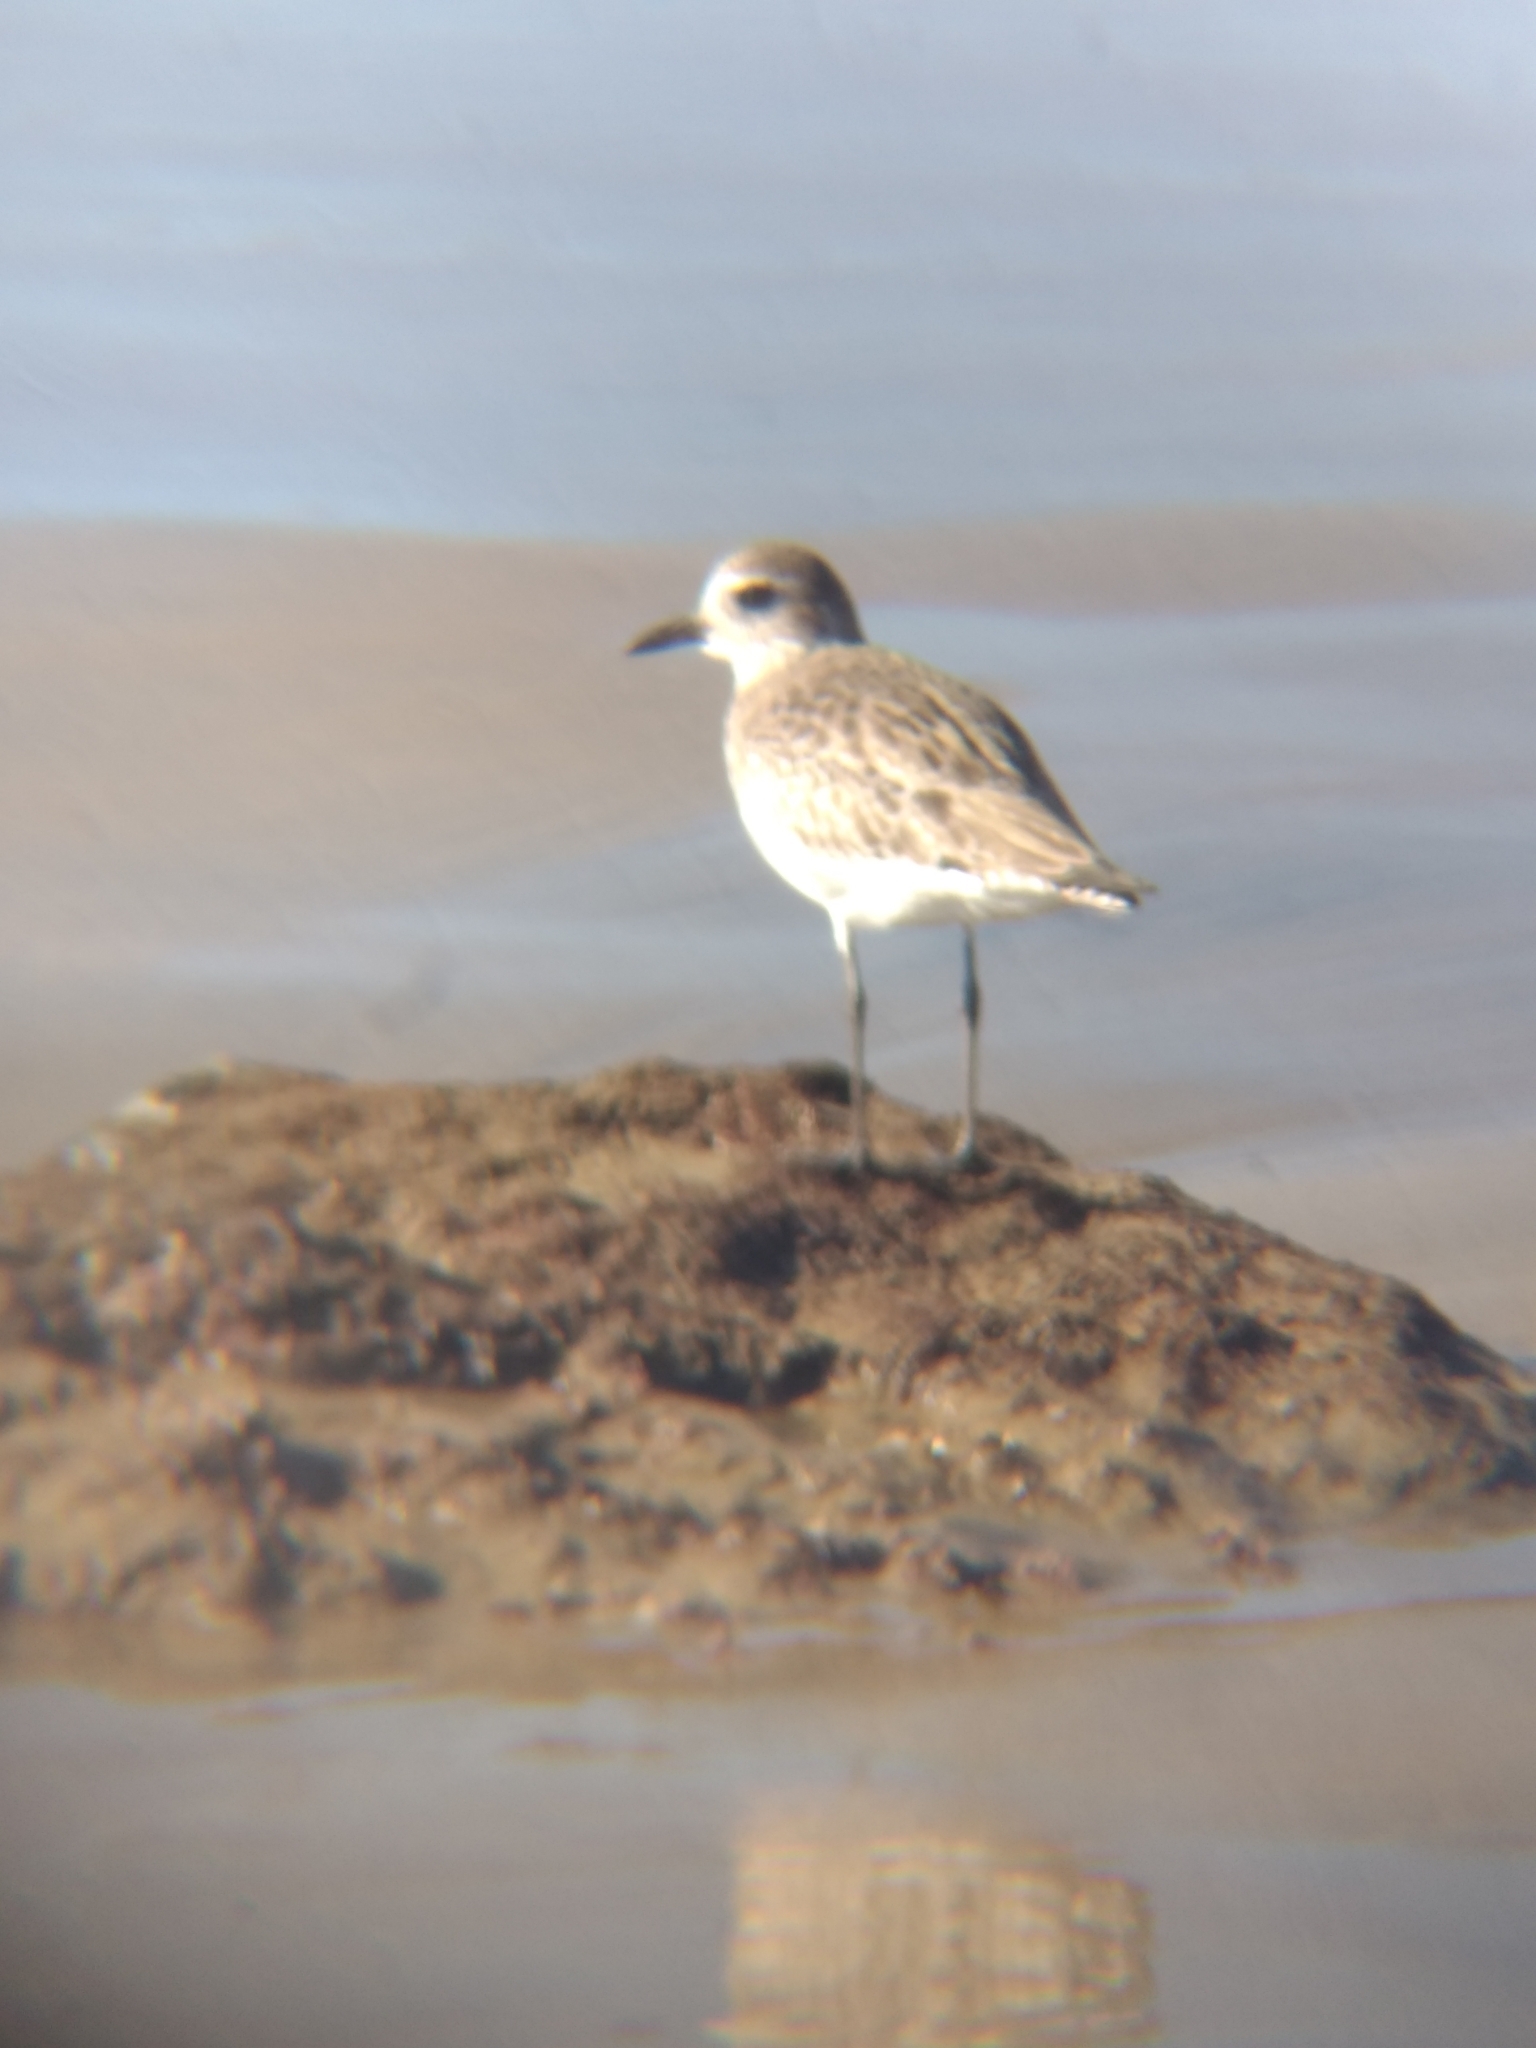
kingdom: Animalia
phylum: Chordata
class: Aves
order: Charadriiformes
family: Charadriidae
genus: Pluvialis
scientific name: Pluvialis squatarola
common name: Grey plover
